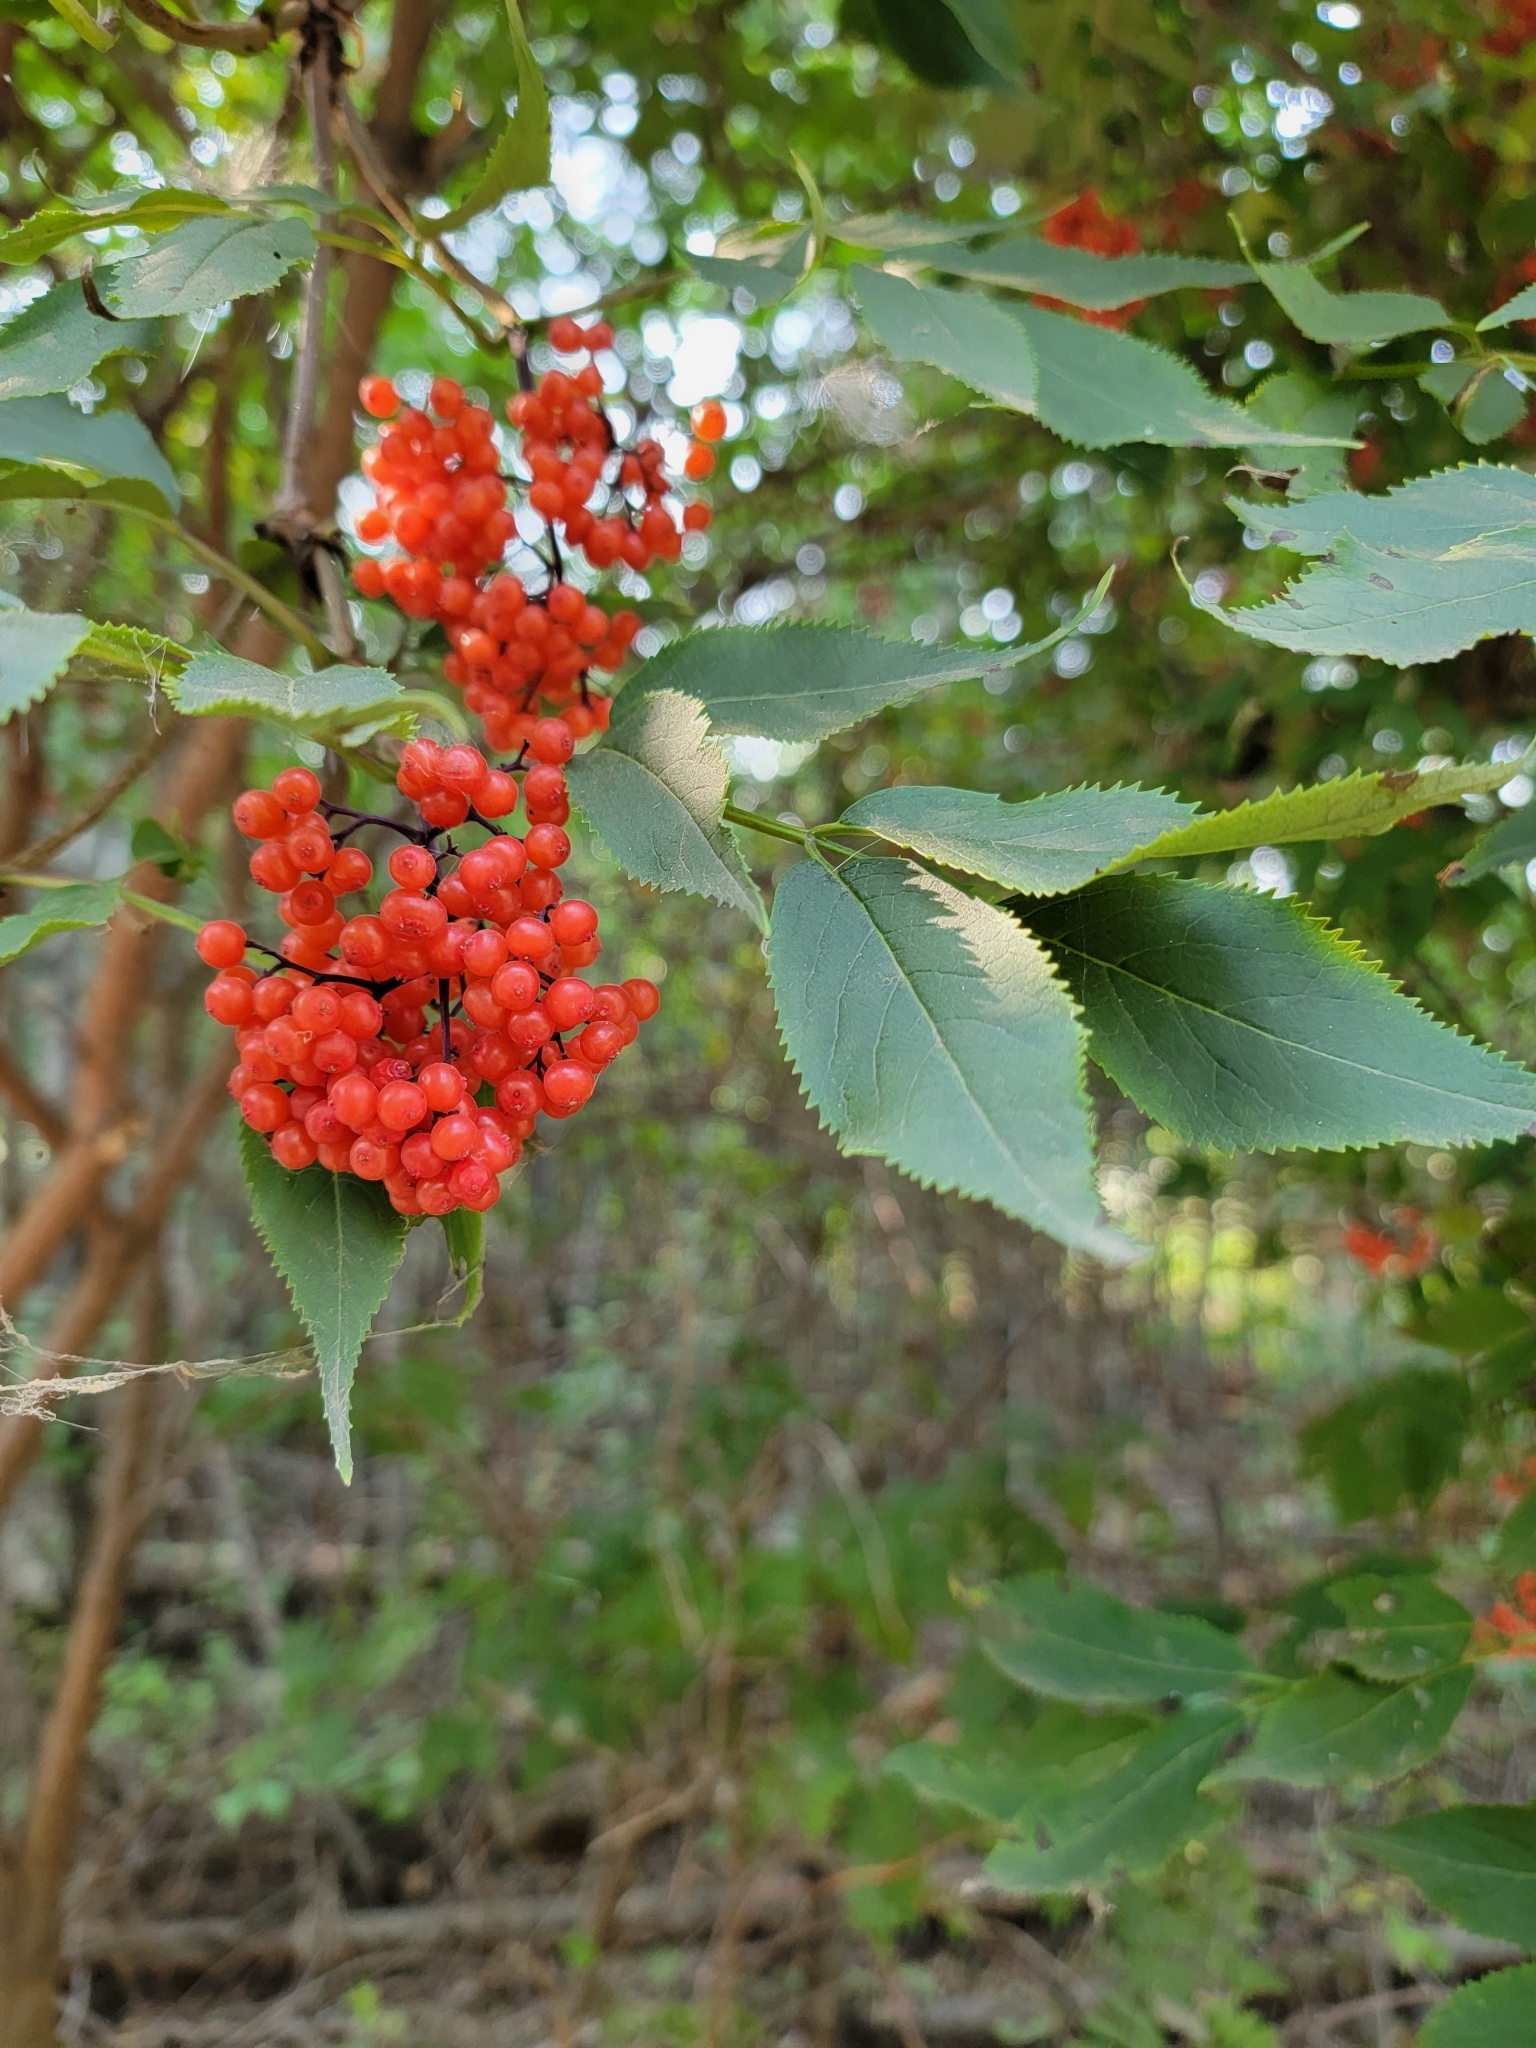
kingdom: Plantae
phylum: Tracheophyta
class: Magnoliopsida
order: Dipsacales
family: Viburnaceae
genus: Sambucus
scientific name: Sambucus racemosa
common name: Red-berried elder
